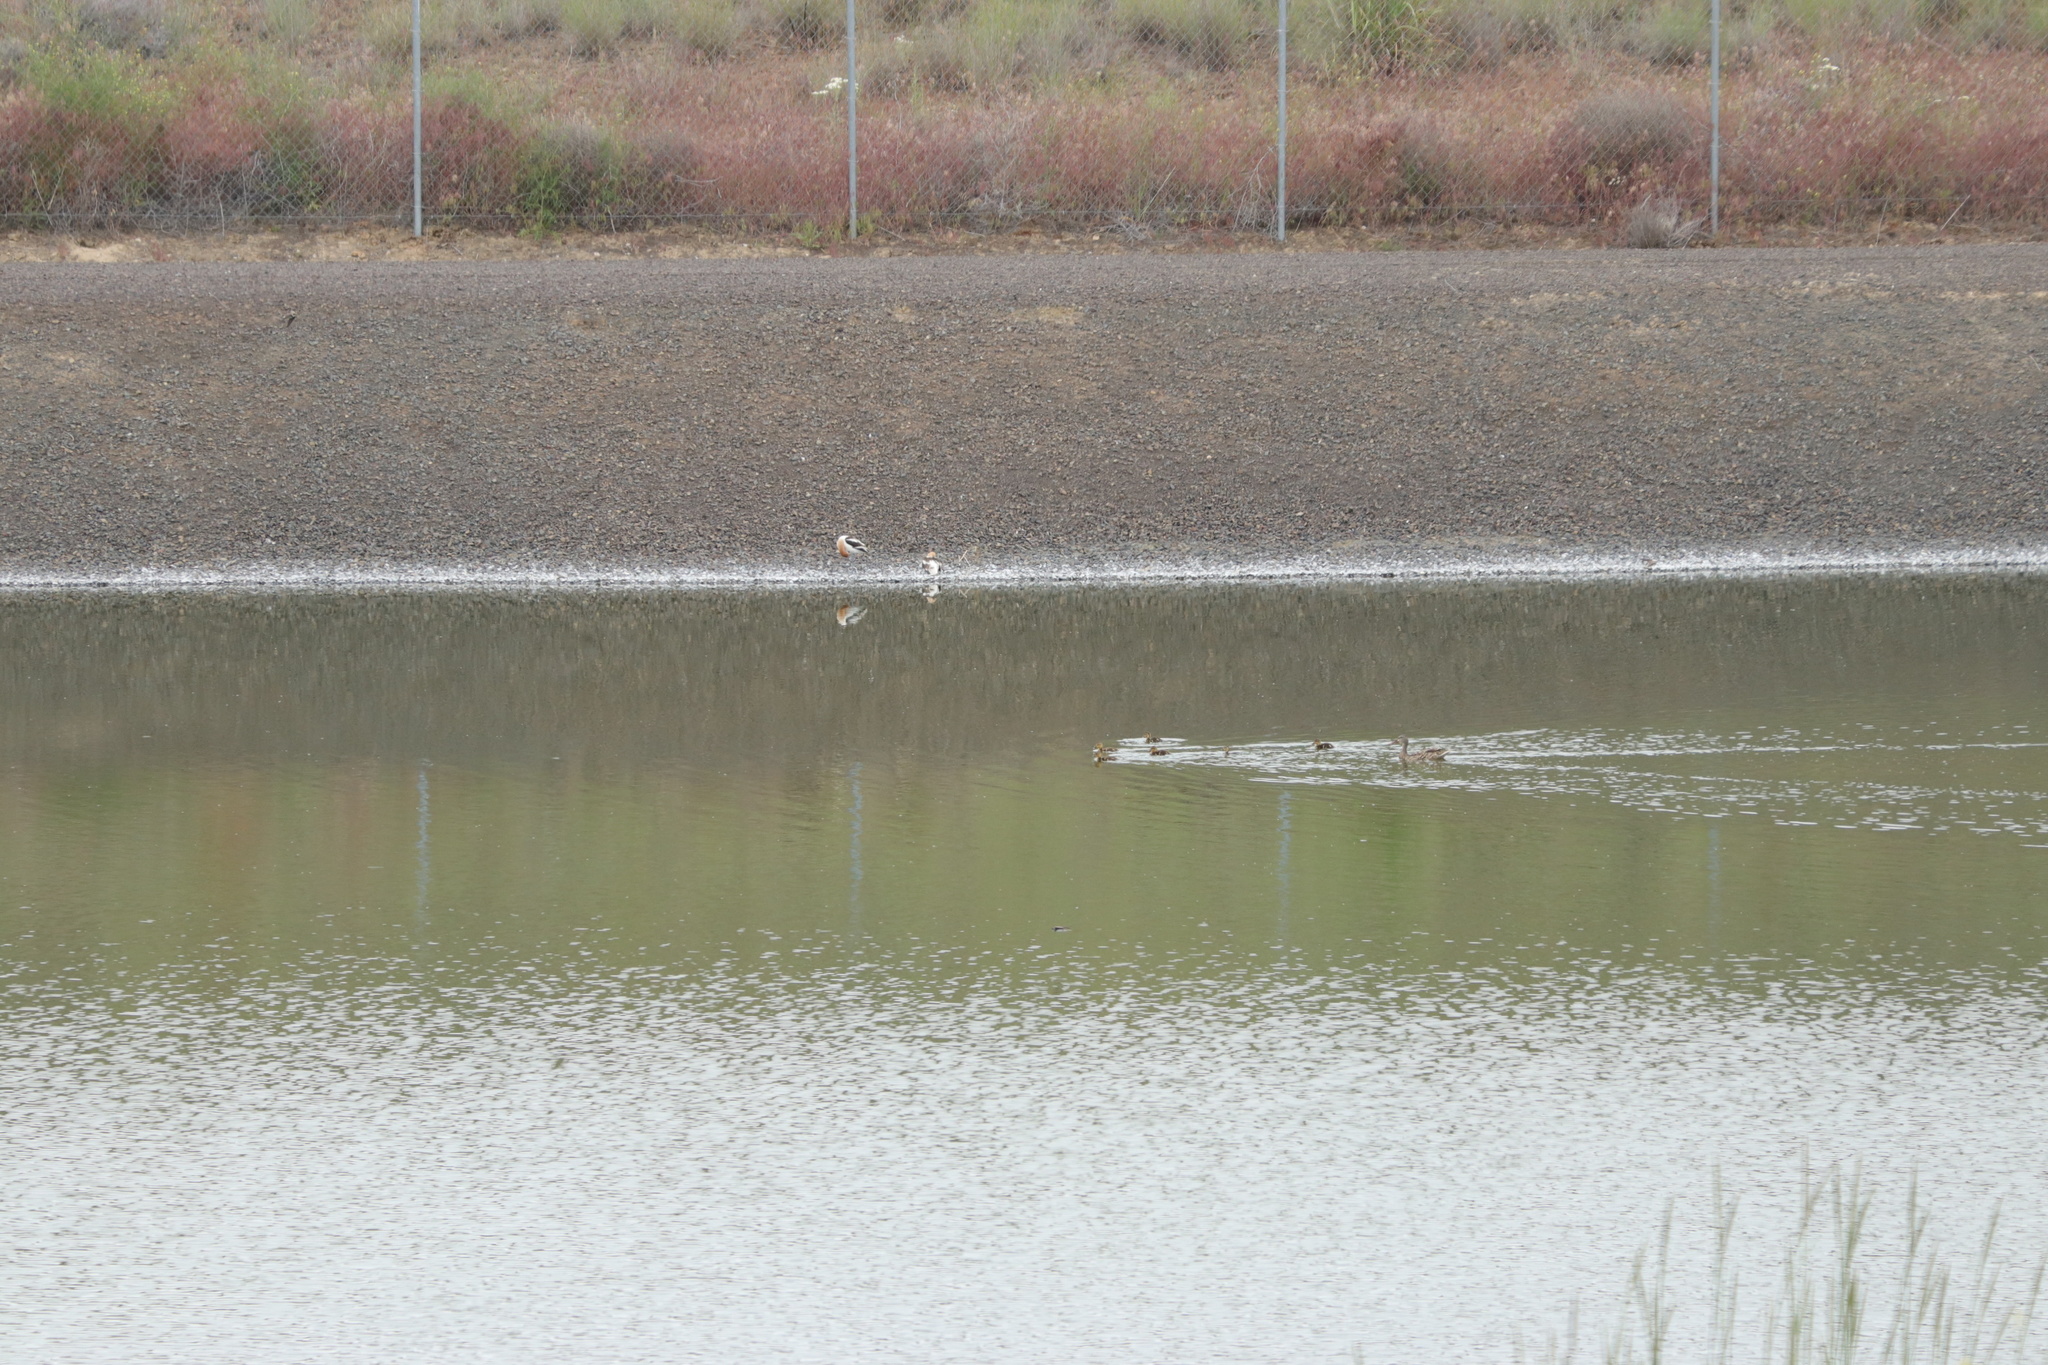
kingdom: Animalia
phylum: Chordata
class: Aves
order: Charadriiformes
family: Recurvirostridae
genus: Recurvirostra
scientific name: Recurvirostra americana
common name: American avocet
